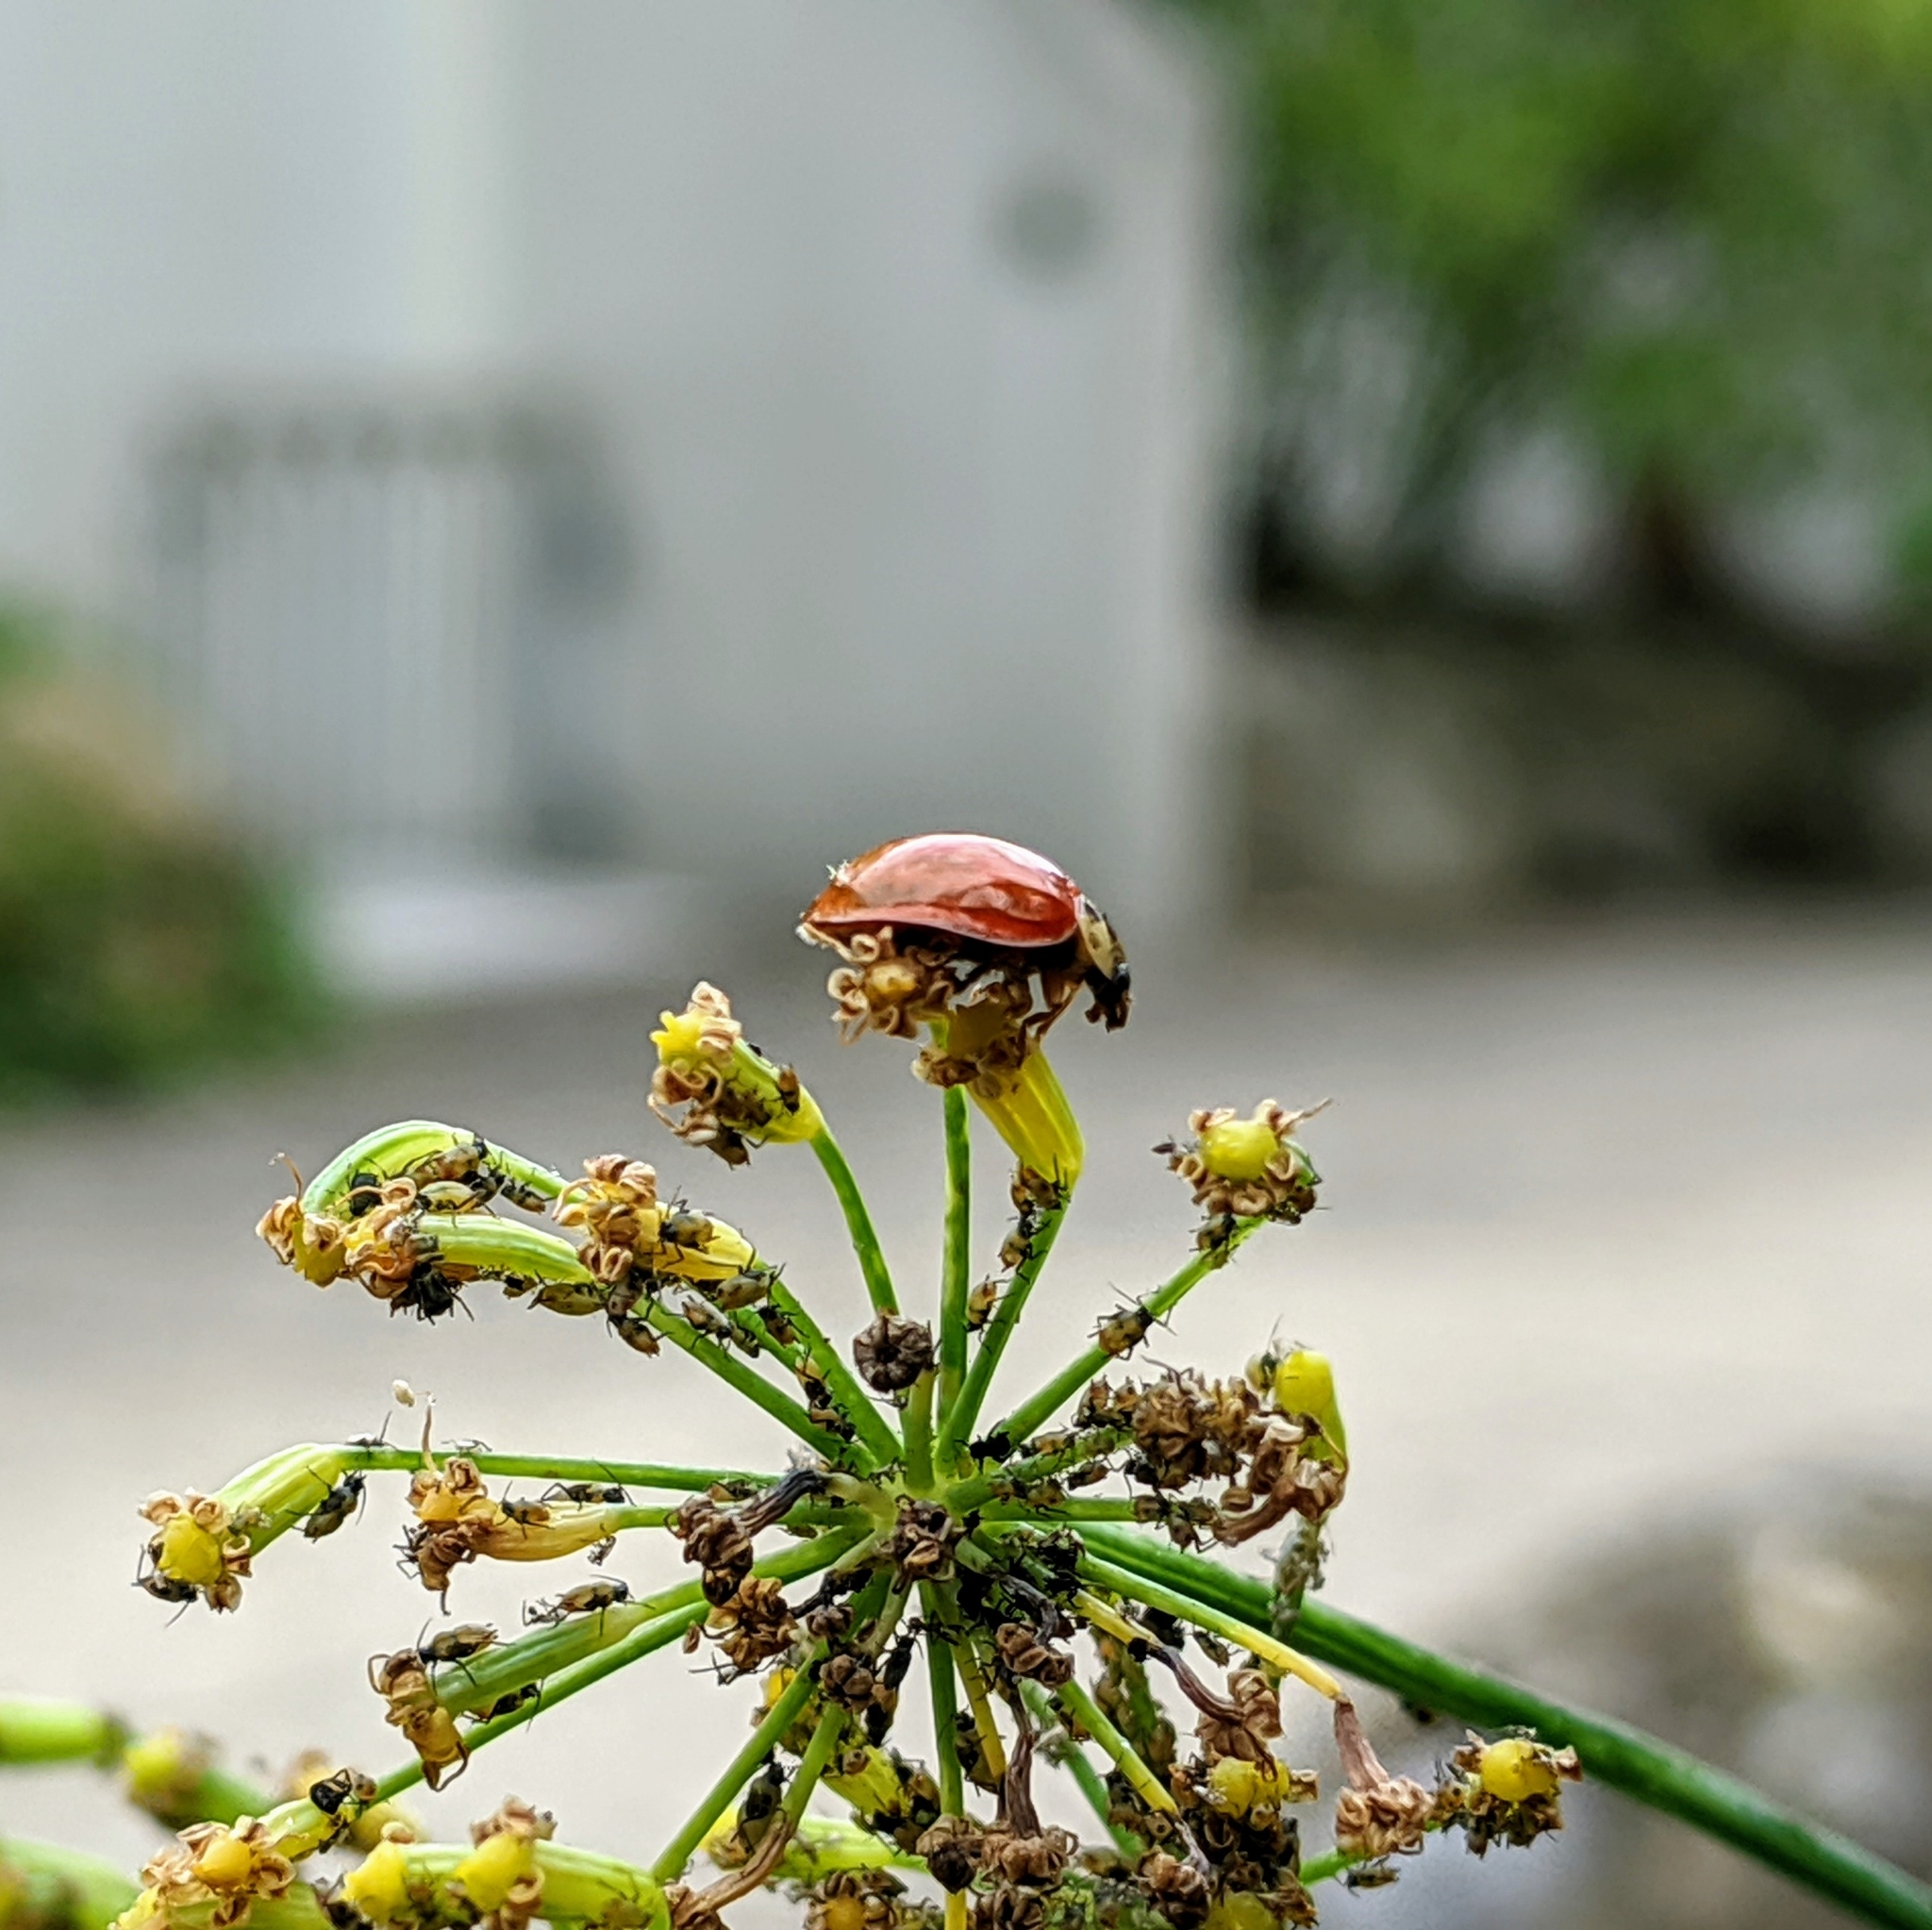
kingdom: Animalia
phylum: Arthropoda
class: Insecta
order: Coleoptera
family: Coccinellidae
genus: Harmonia
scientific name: Harmonia axyridis
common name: Harlequin ladybird
